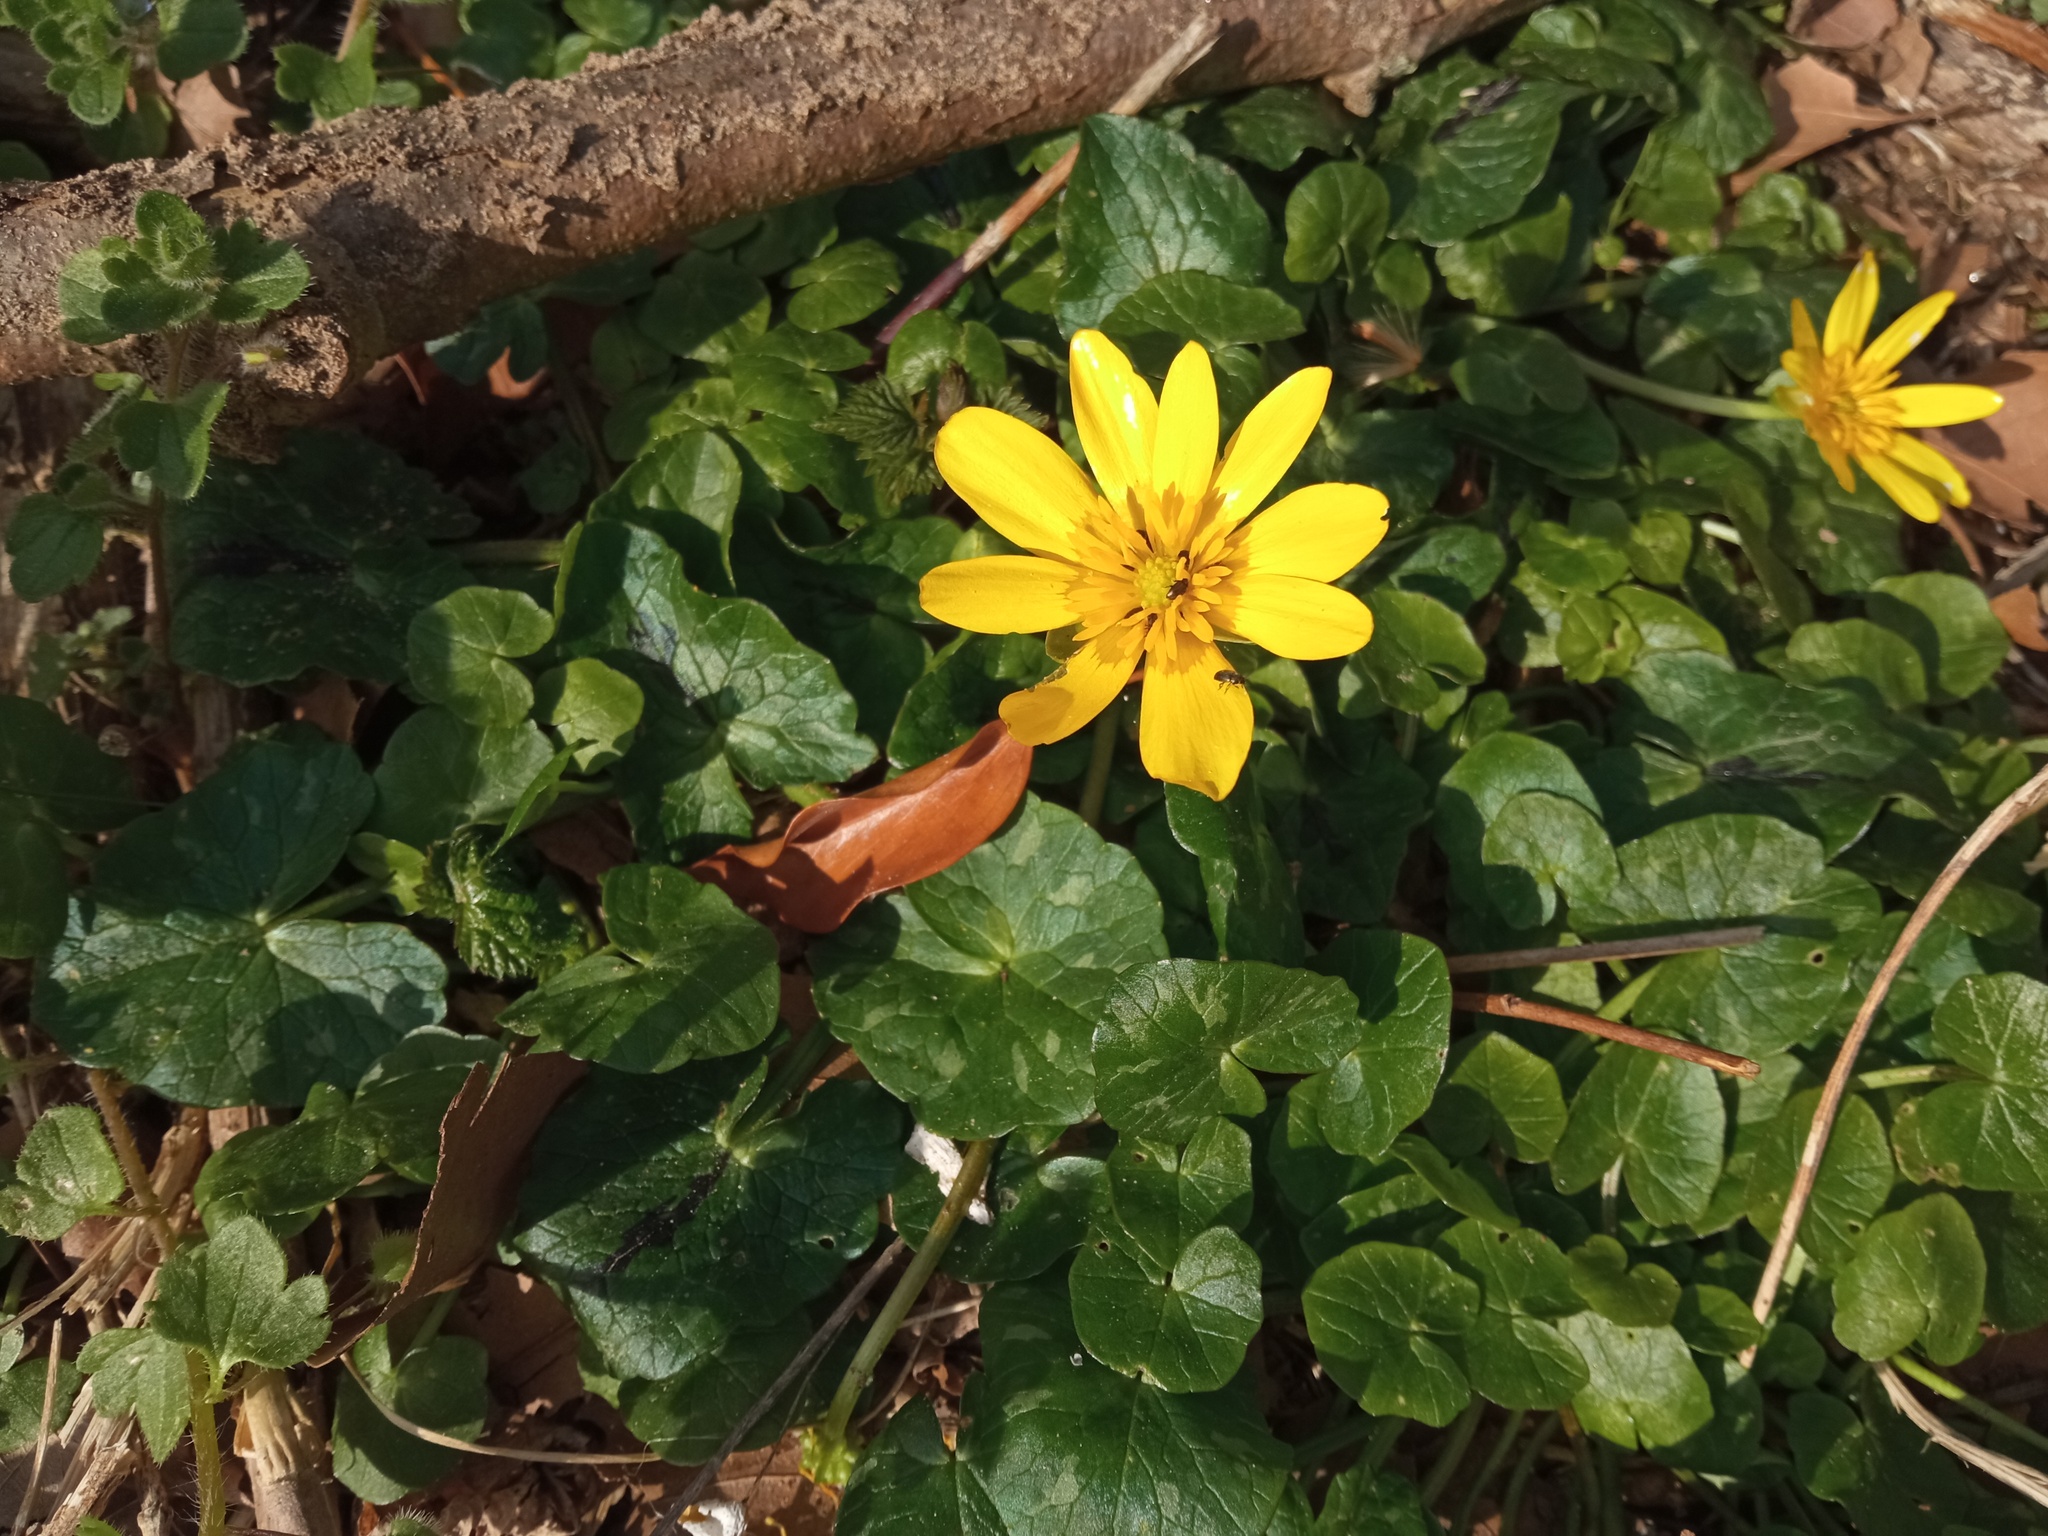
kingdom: Plantae
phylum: Tracheophyta
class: Magnoliopsida
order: Ranunculales
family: Ranunculaceae
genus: Ficaria
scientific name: Ficaria verna
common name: Lesser celandine
